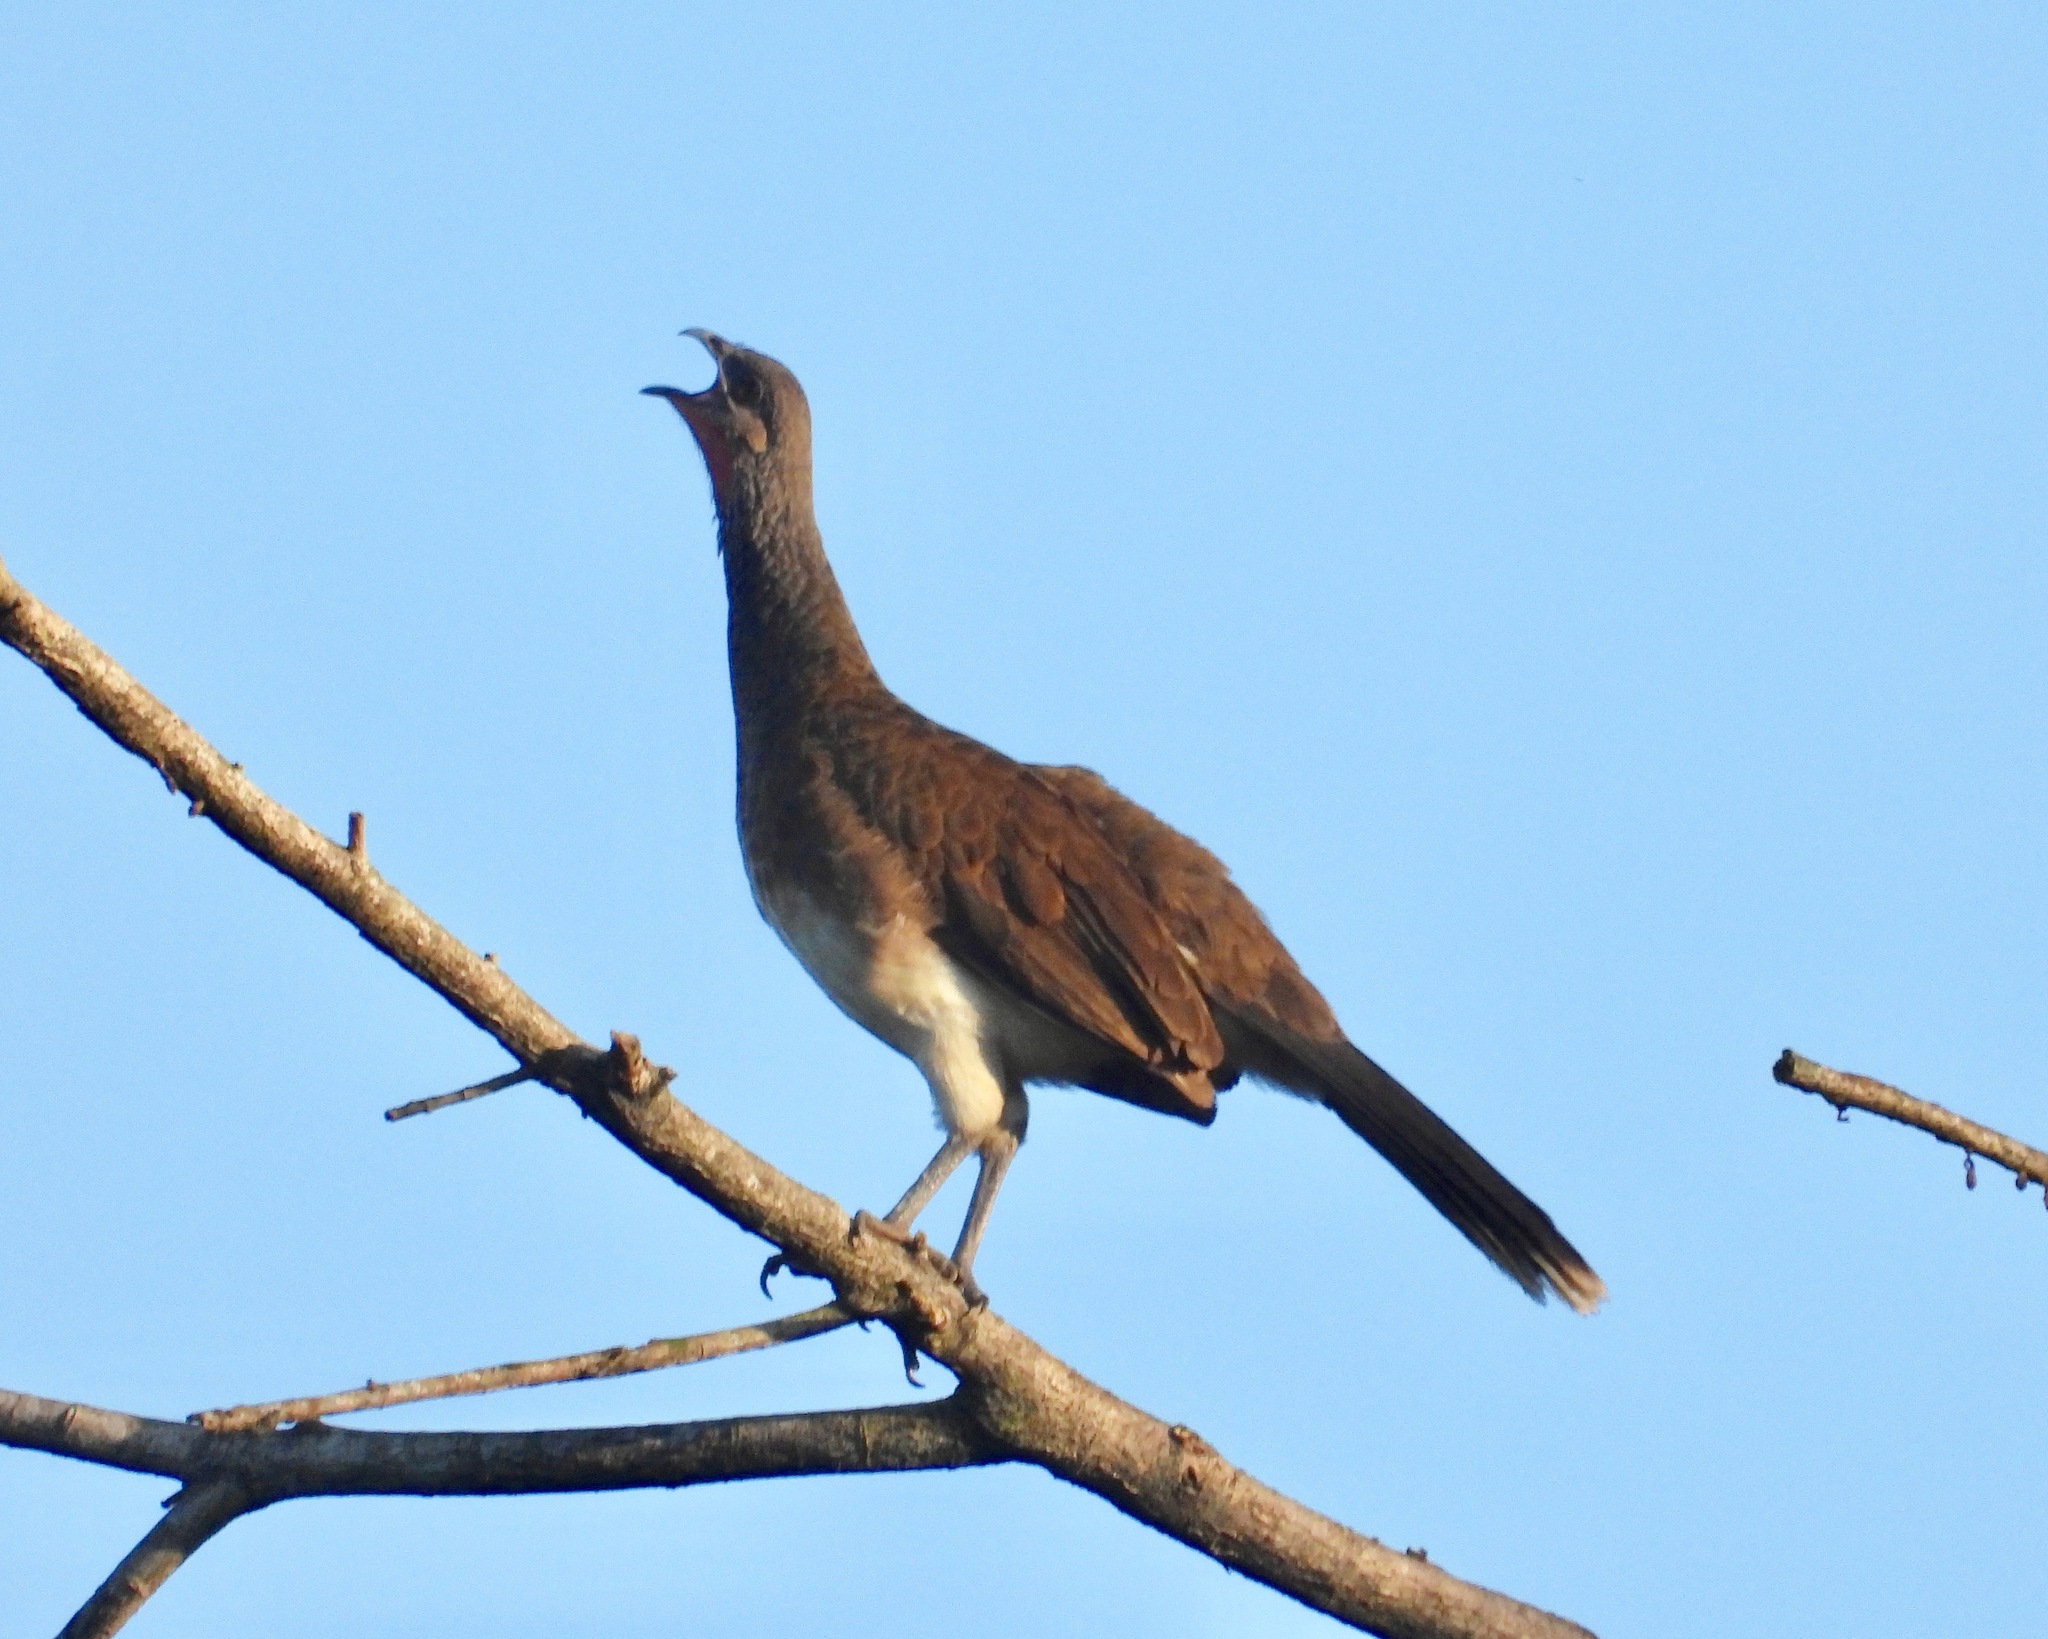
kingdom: Animalia
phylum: Chordata
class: Aves
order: Galliformes
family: Cracidae
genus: Ortalis
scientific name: Ortalis leucogastra
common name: White-bellied chachalaca
